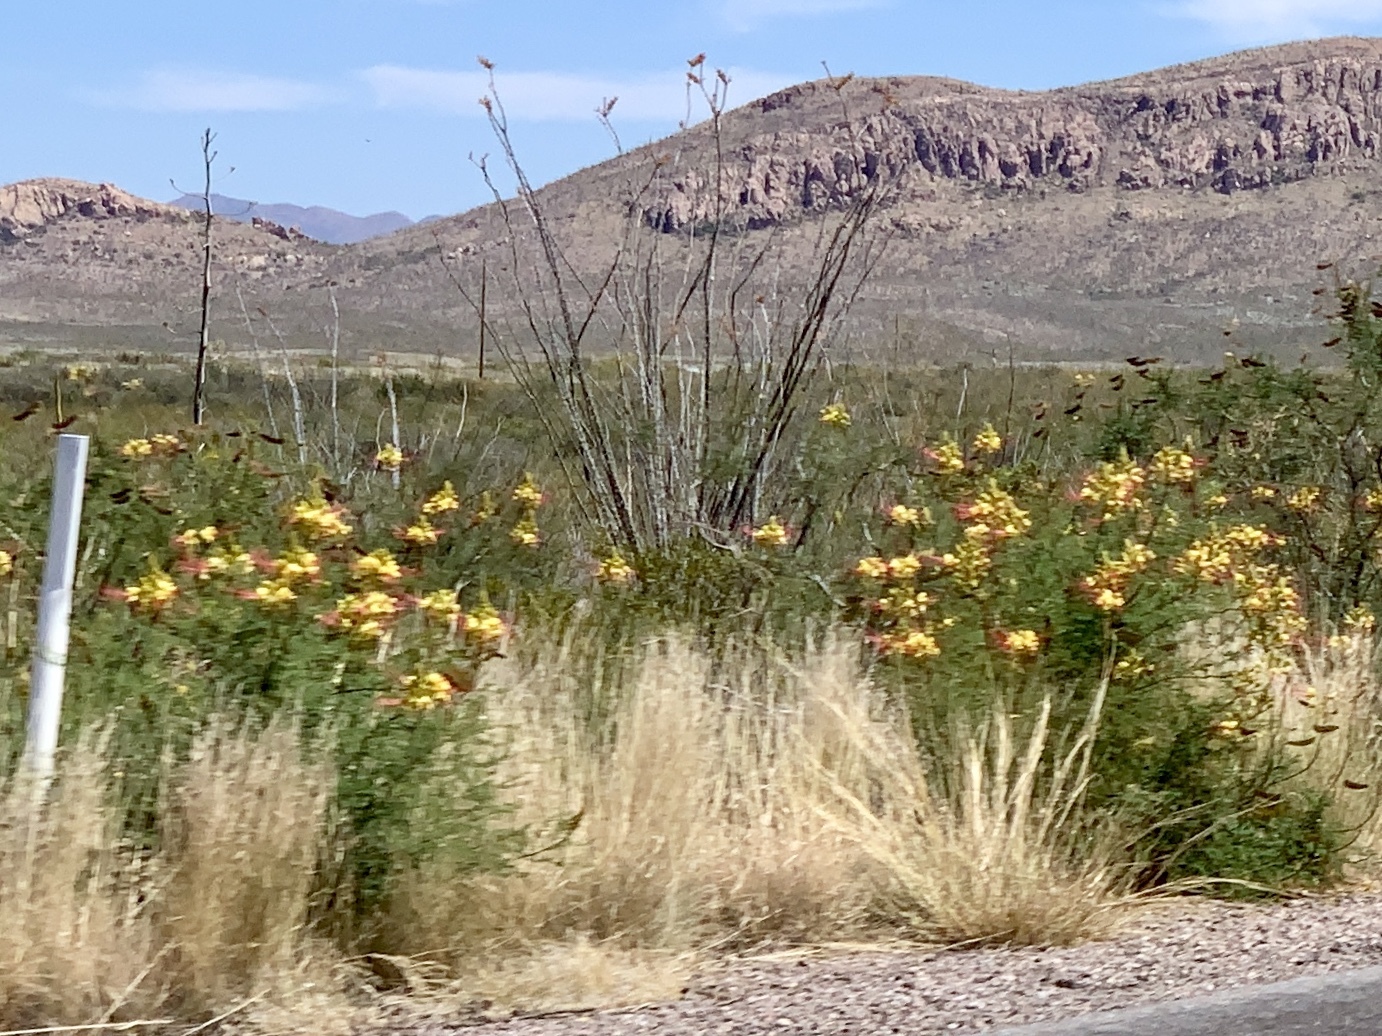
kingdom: Plantae
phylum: Tracheophyta
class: Magnoliopsida
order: Fabales
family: Fabaceae
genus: Erythrostemon
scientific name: Erythrostemon gilliesii
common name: Bird-of-paradise shrub
